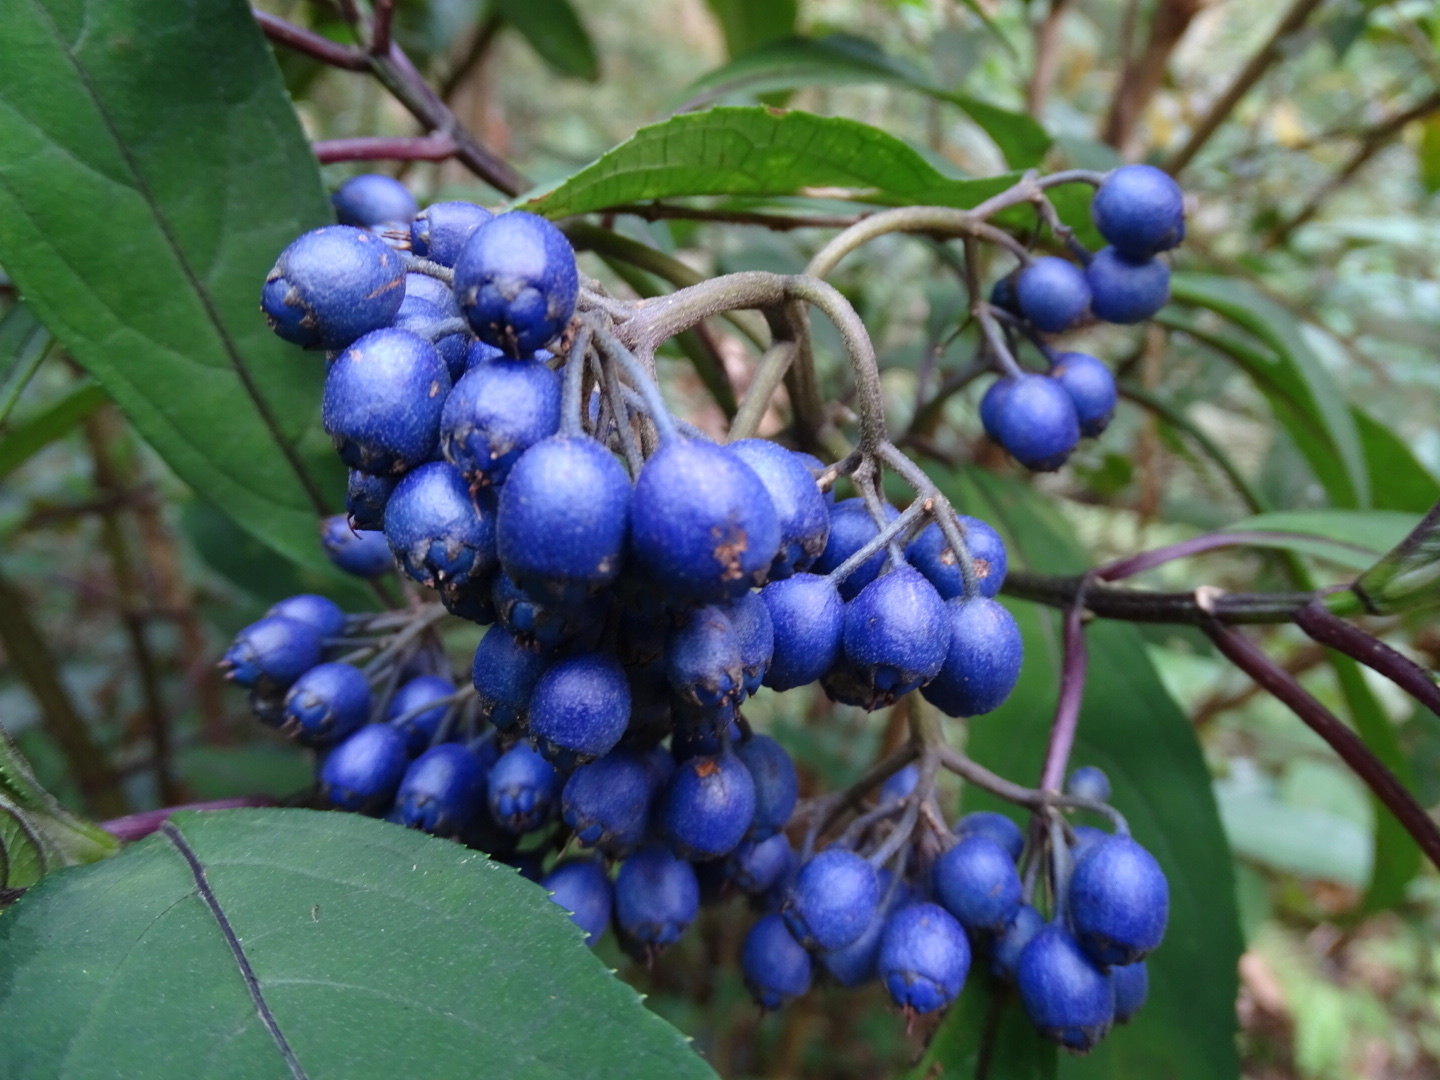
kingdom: Plantae
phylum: Tracheophyta
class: Magnoliopsida
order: Cornales
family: Hydrangeaceae
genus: Hydrangea
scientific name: Hydrangea febrifuga
